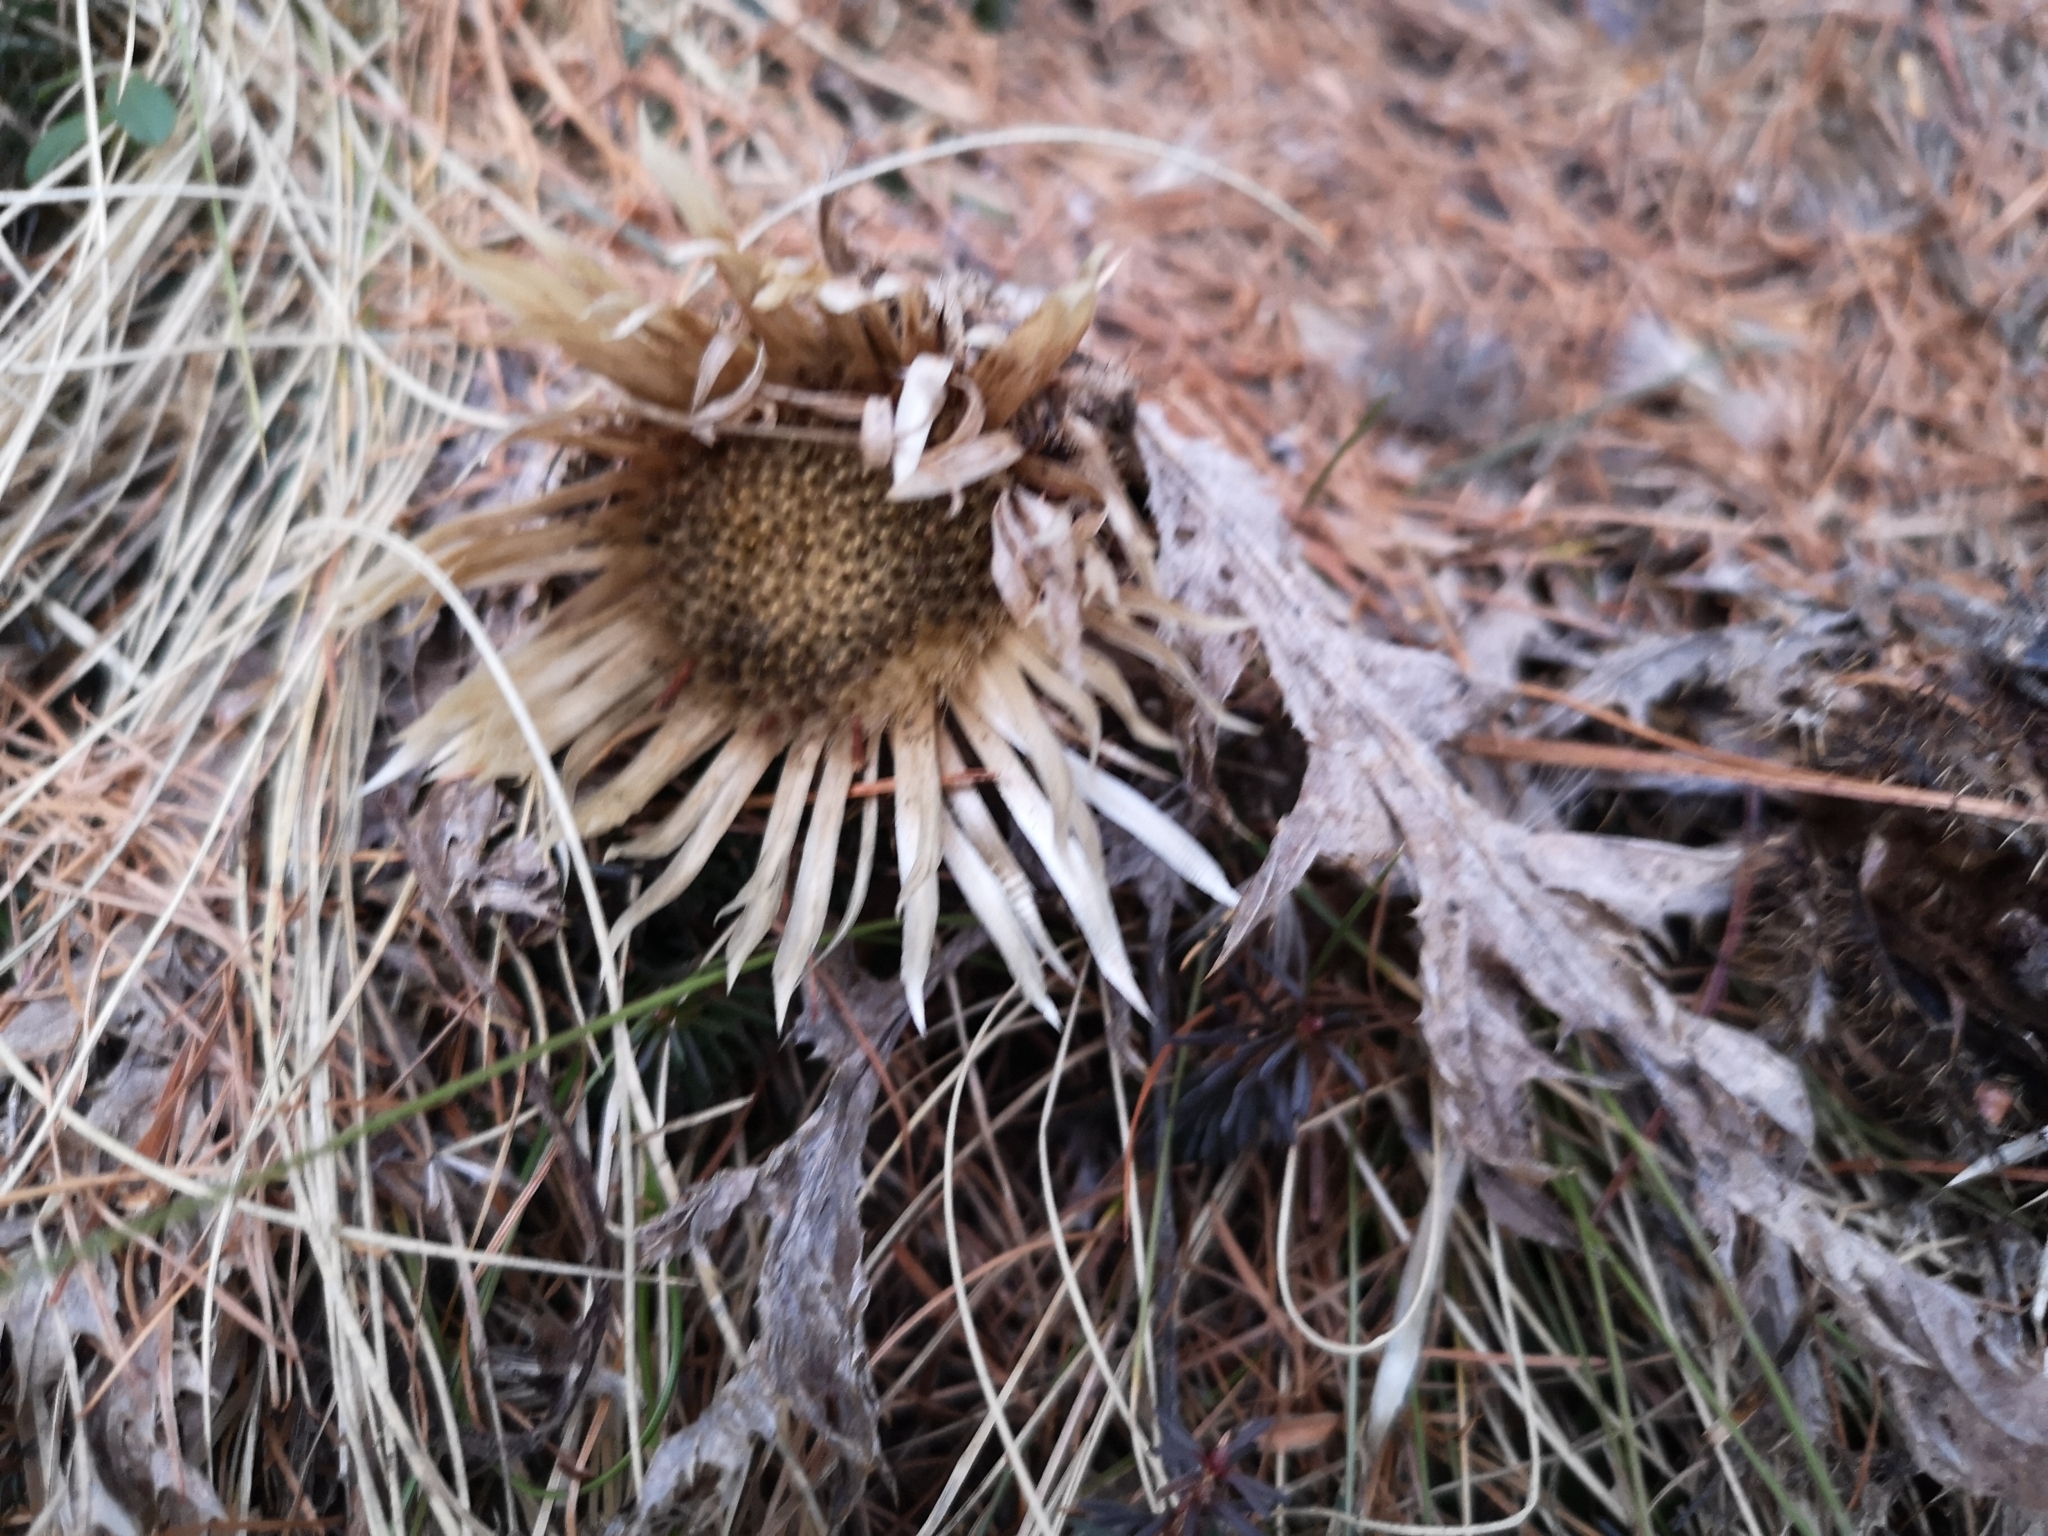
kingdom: Plantae
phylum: Tracheophyta
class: Magnoliopsida
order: Asterales
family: Asteraceae
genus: Carlina
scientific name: Carlina acaulis
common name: Stemless carline thistle
